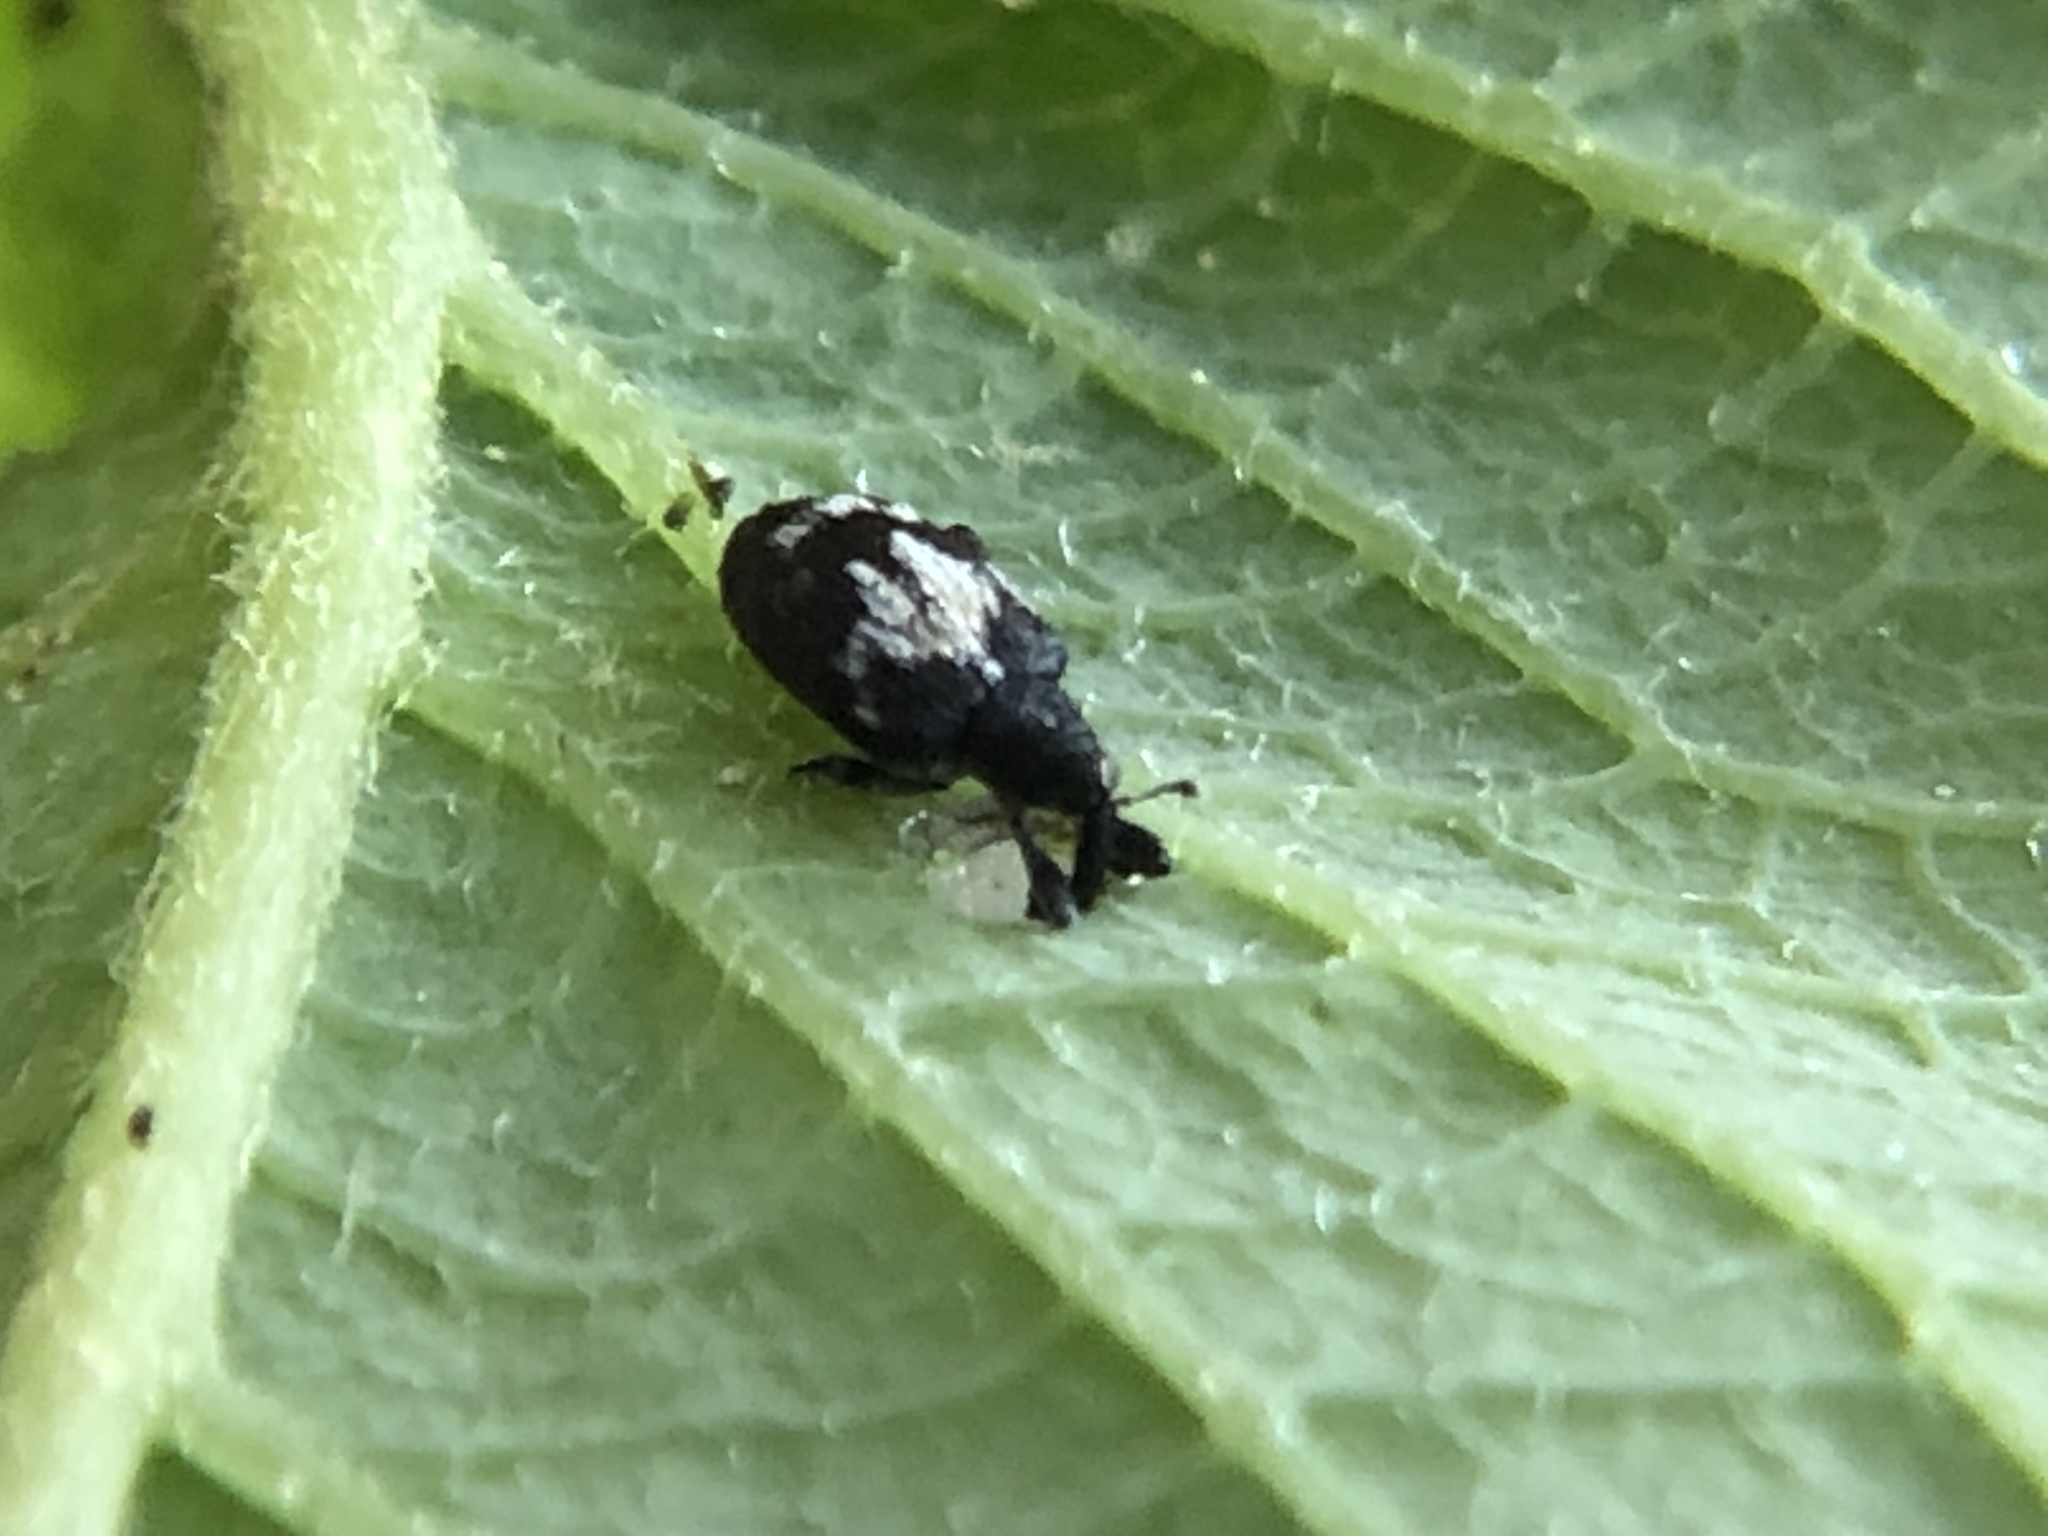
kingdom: Animalia
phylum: Arthropoda
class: Insecta
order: Coleoptera
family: Curculionidae
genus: Tachyerges
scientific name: Tachyerges salicis
